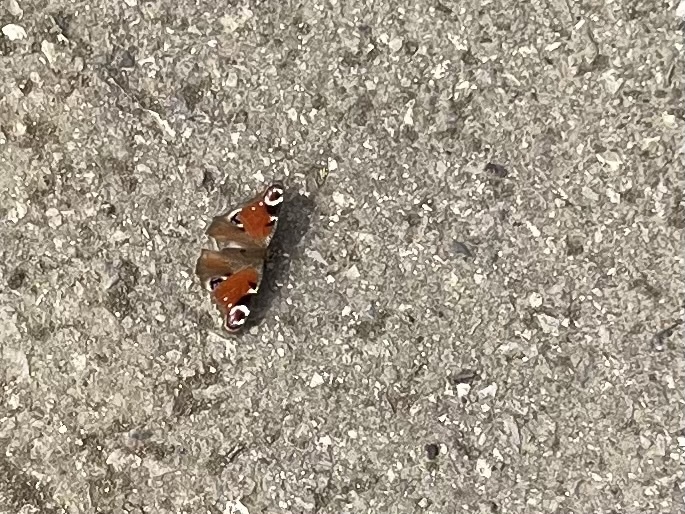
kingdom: Animalia
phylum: Arthropoda
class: Insecta
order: Lepidoptera
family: Nymphalidae
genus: Aglais
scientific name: Aglais io
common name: Peacock
